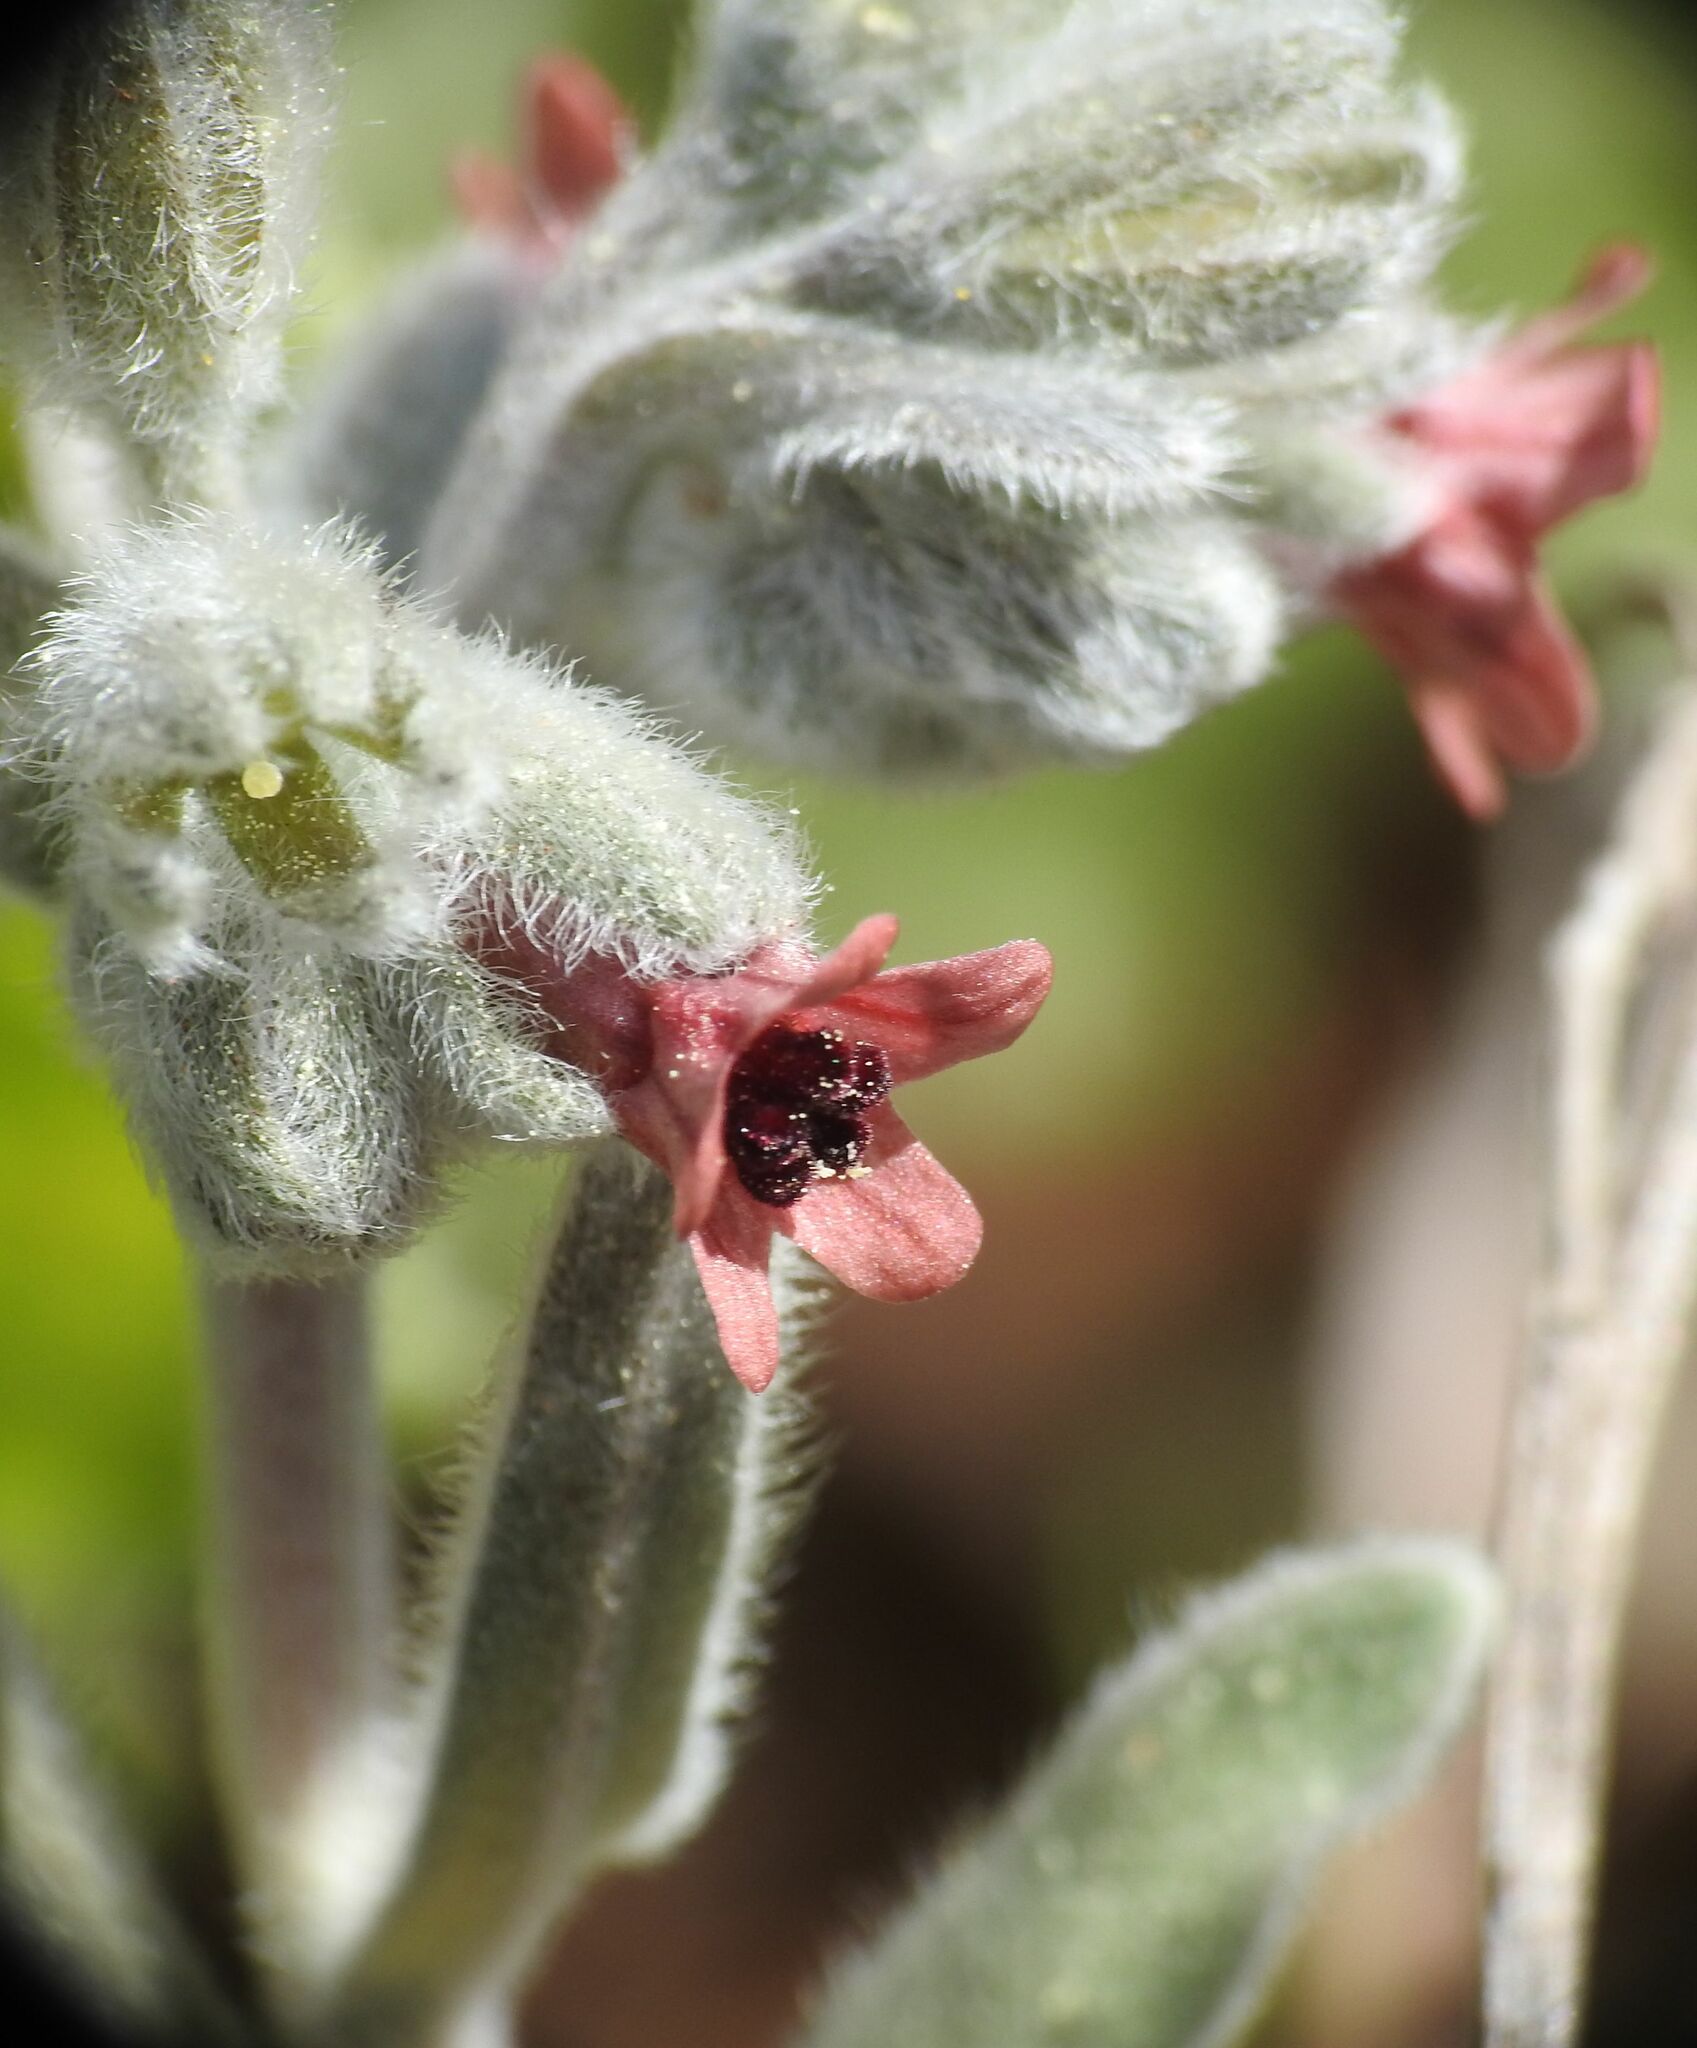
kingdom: Plantae
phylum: Tracheophyta
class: Magnoliopsida
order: Boraginales
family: Boraginaceae
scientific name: Boraginaceae
